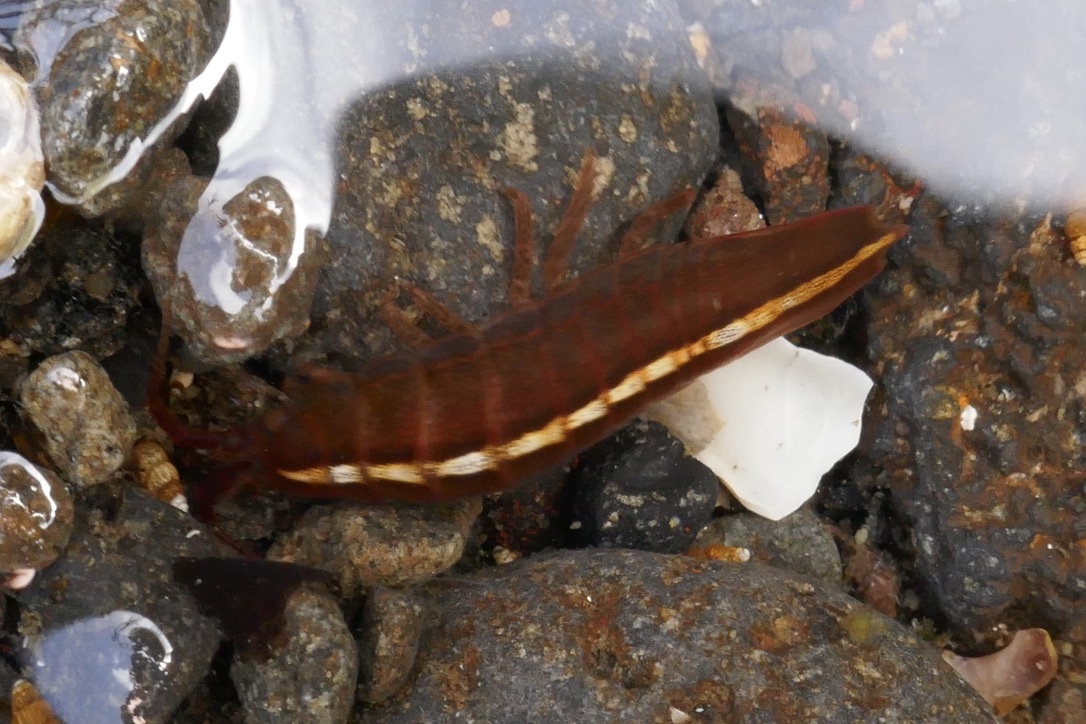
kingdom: Animalia
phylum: Arthropoda
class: Malacostraca
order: Isopoda
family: Idoteidae
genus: Idotea
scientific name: Idotea balthica
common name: Baltic isopod
